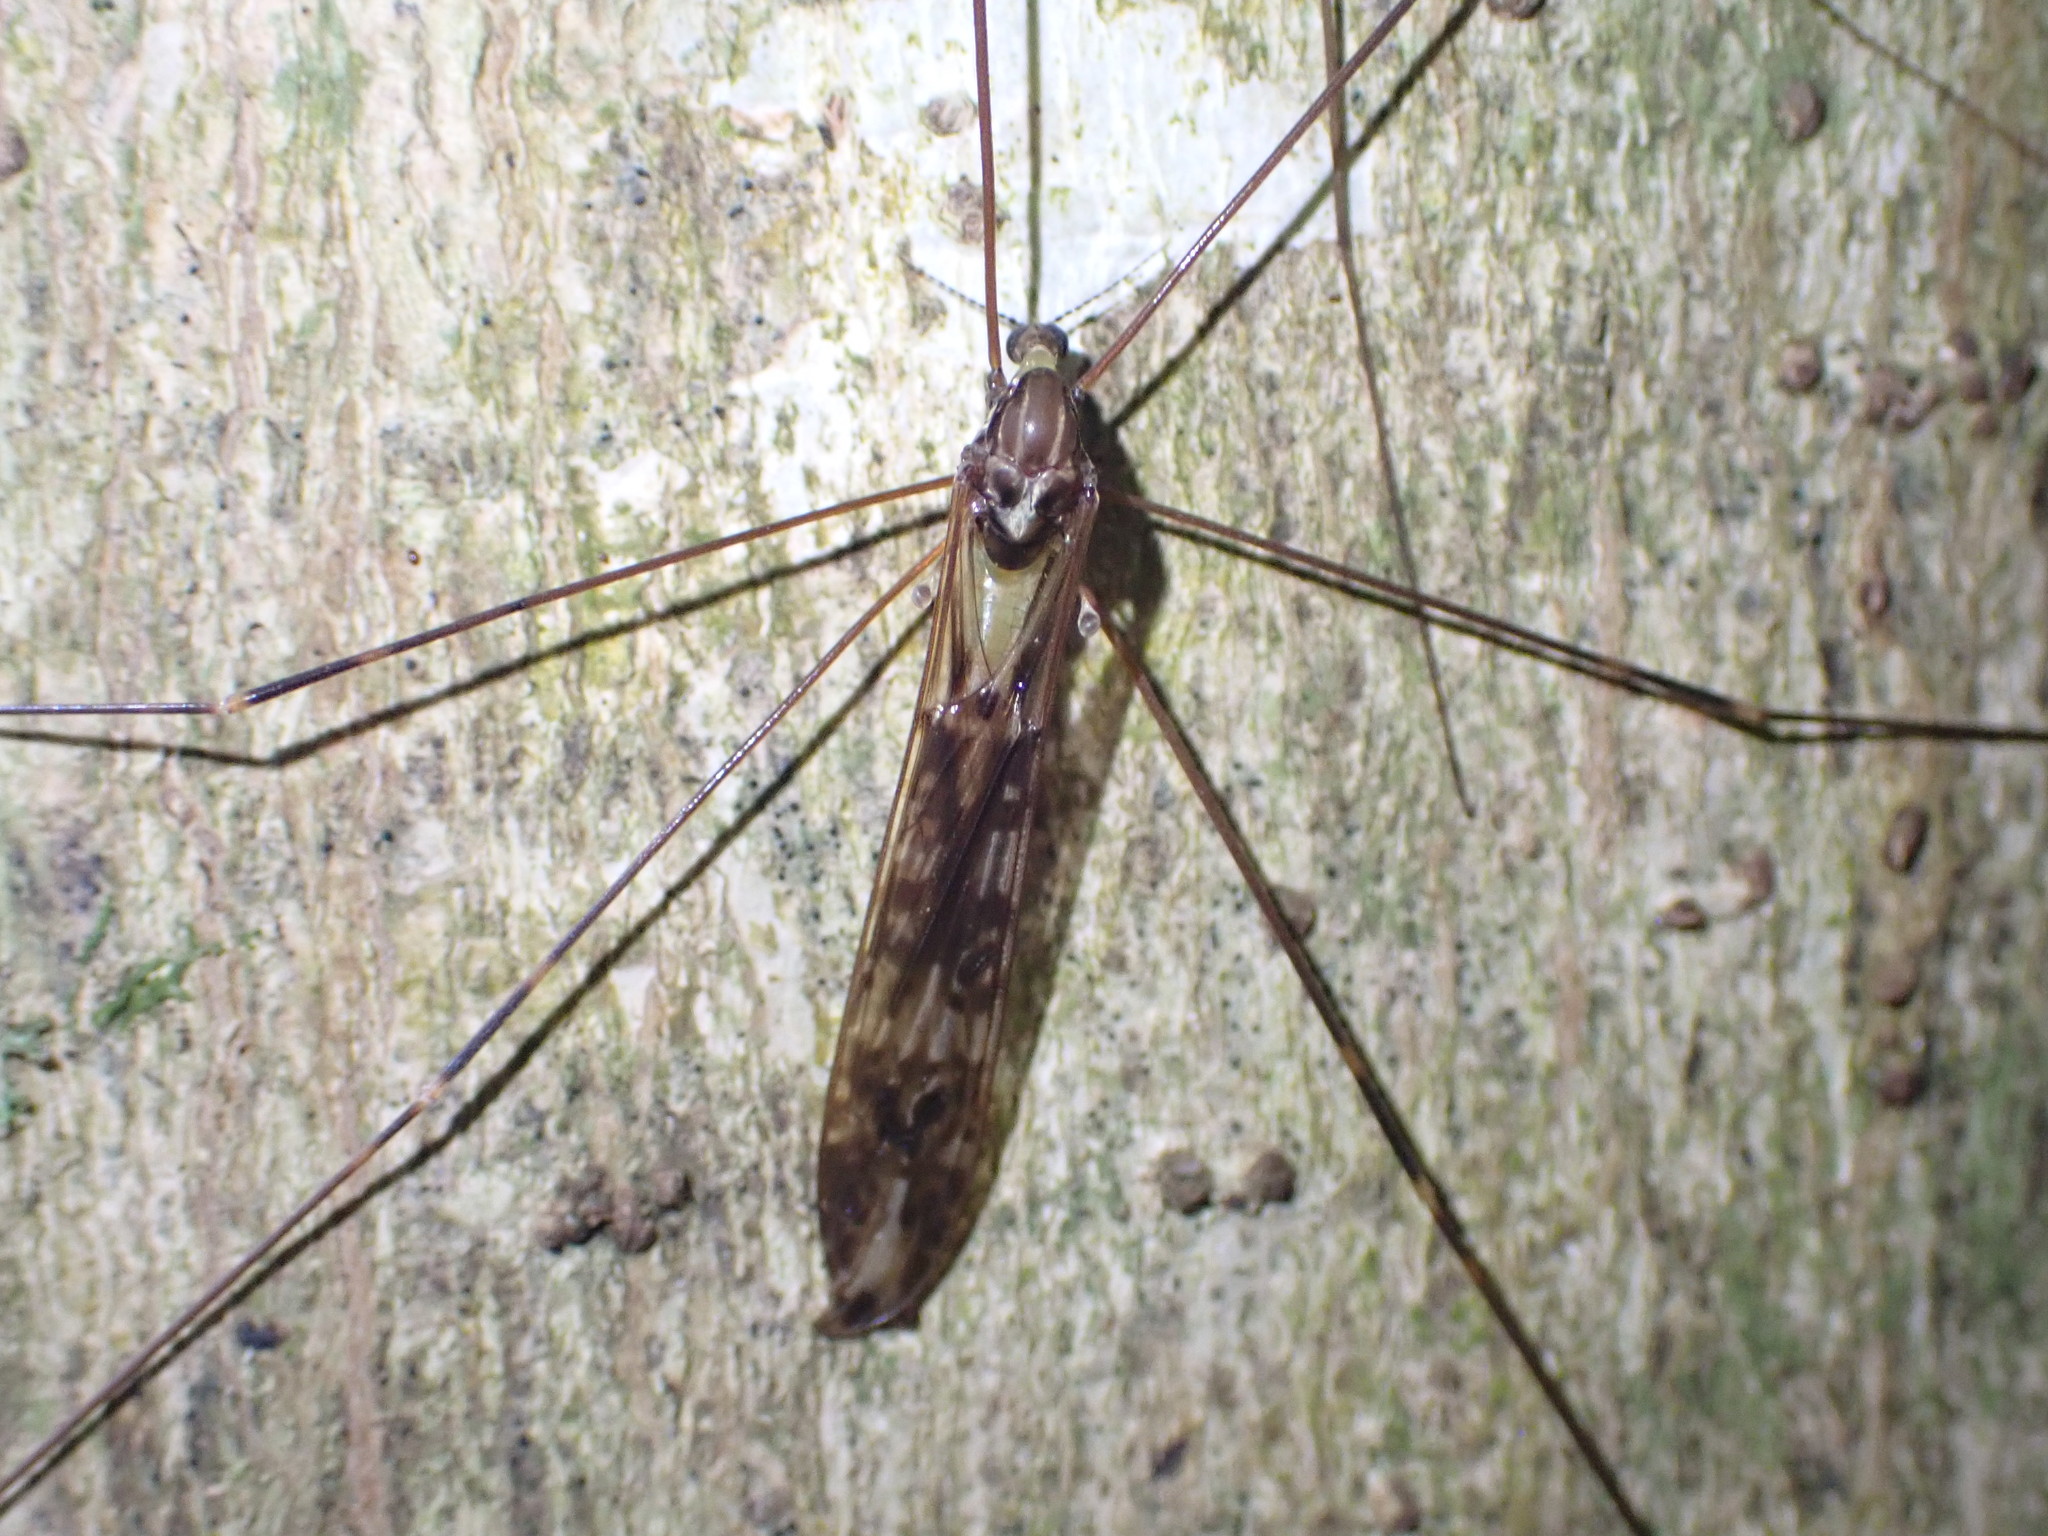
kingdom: Animalia
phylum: Arthropoda
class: Insecta
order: Diptera
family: Limoniidae
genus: Discobola
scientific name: Discobola dohrni
